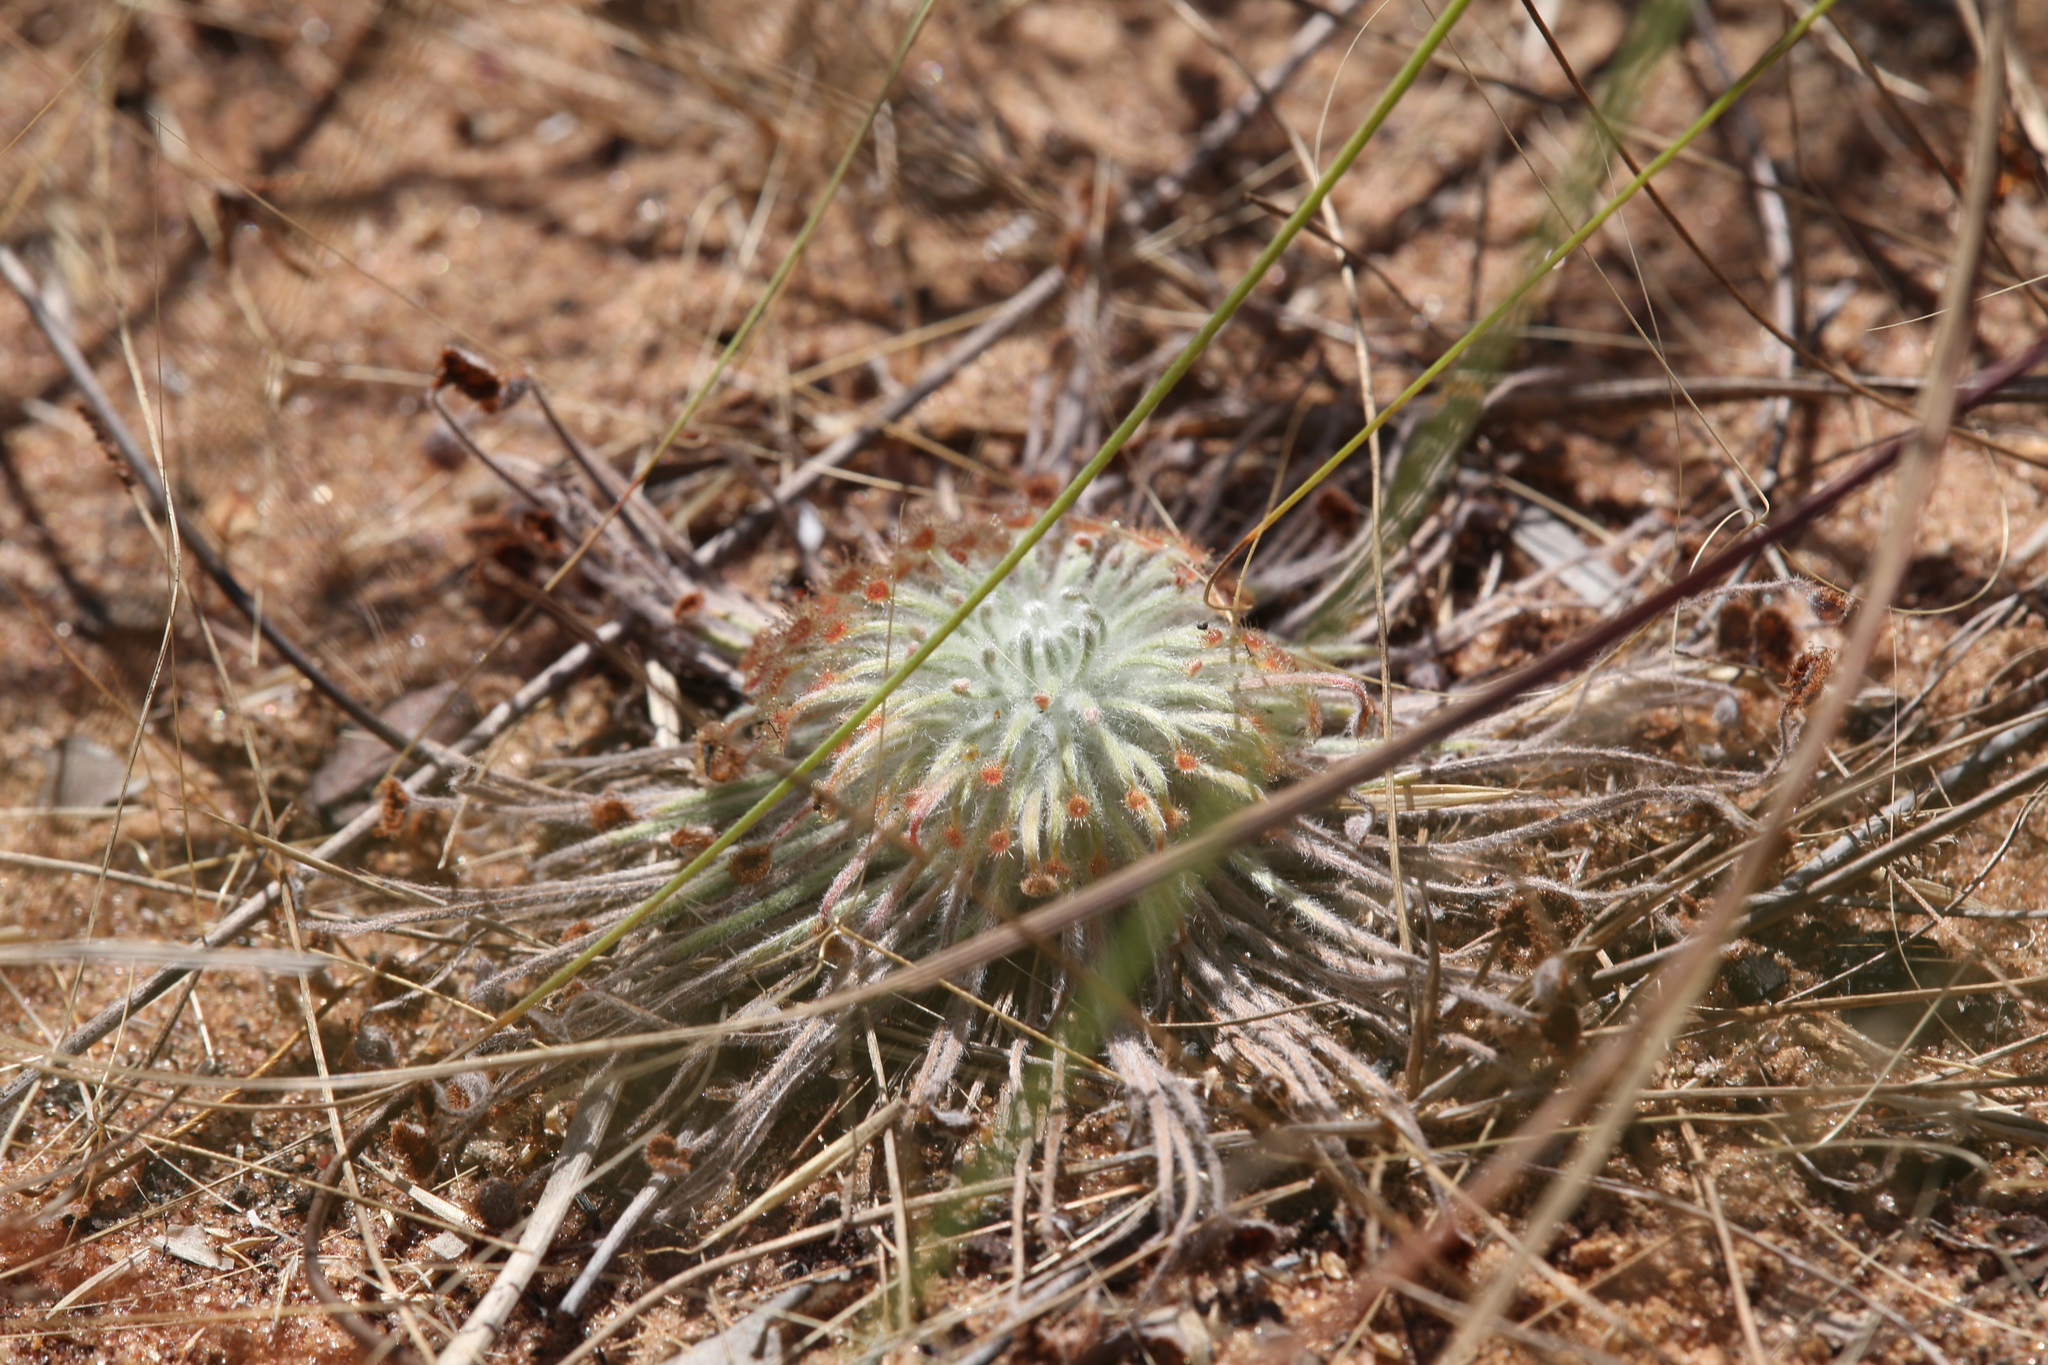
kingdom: Plantae
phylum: Tracheophyta
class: Magnoliopsida
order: Caryophyllales
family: Droseraceae
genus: Drosera
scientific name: Drosera broomensis
